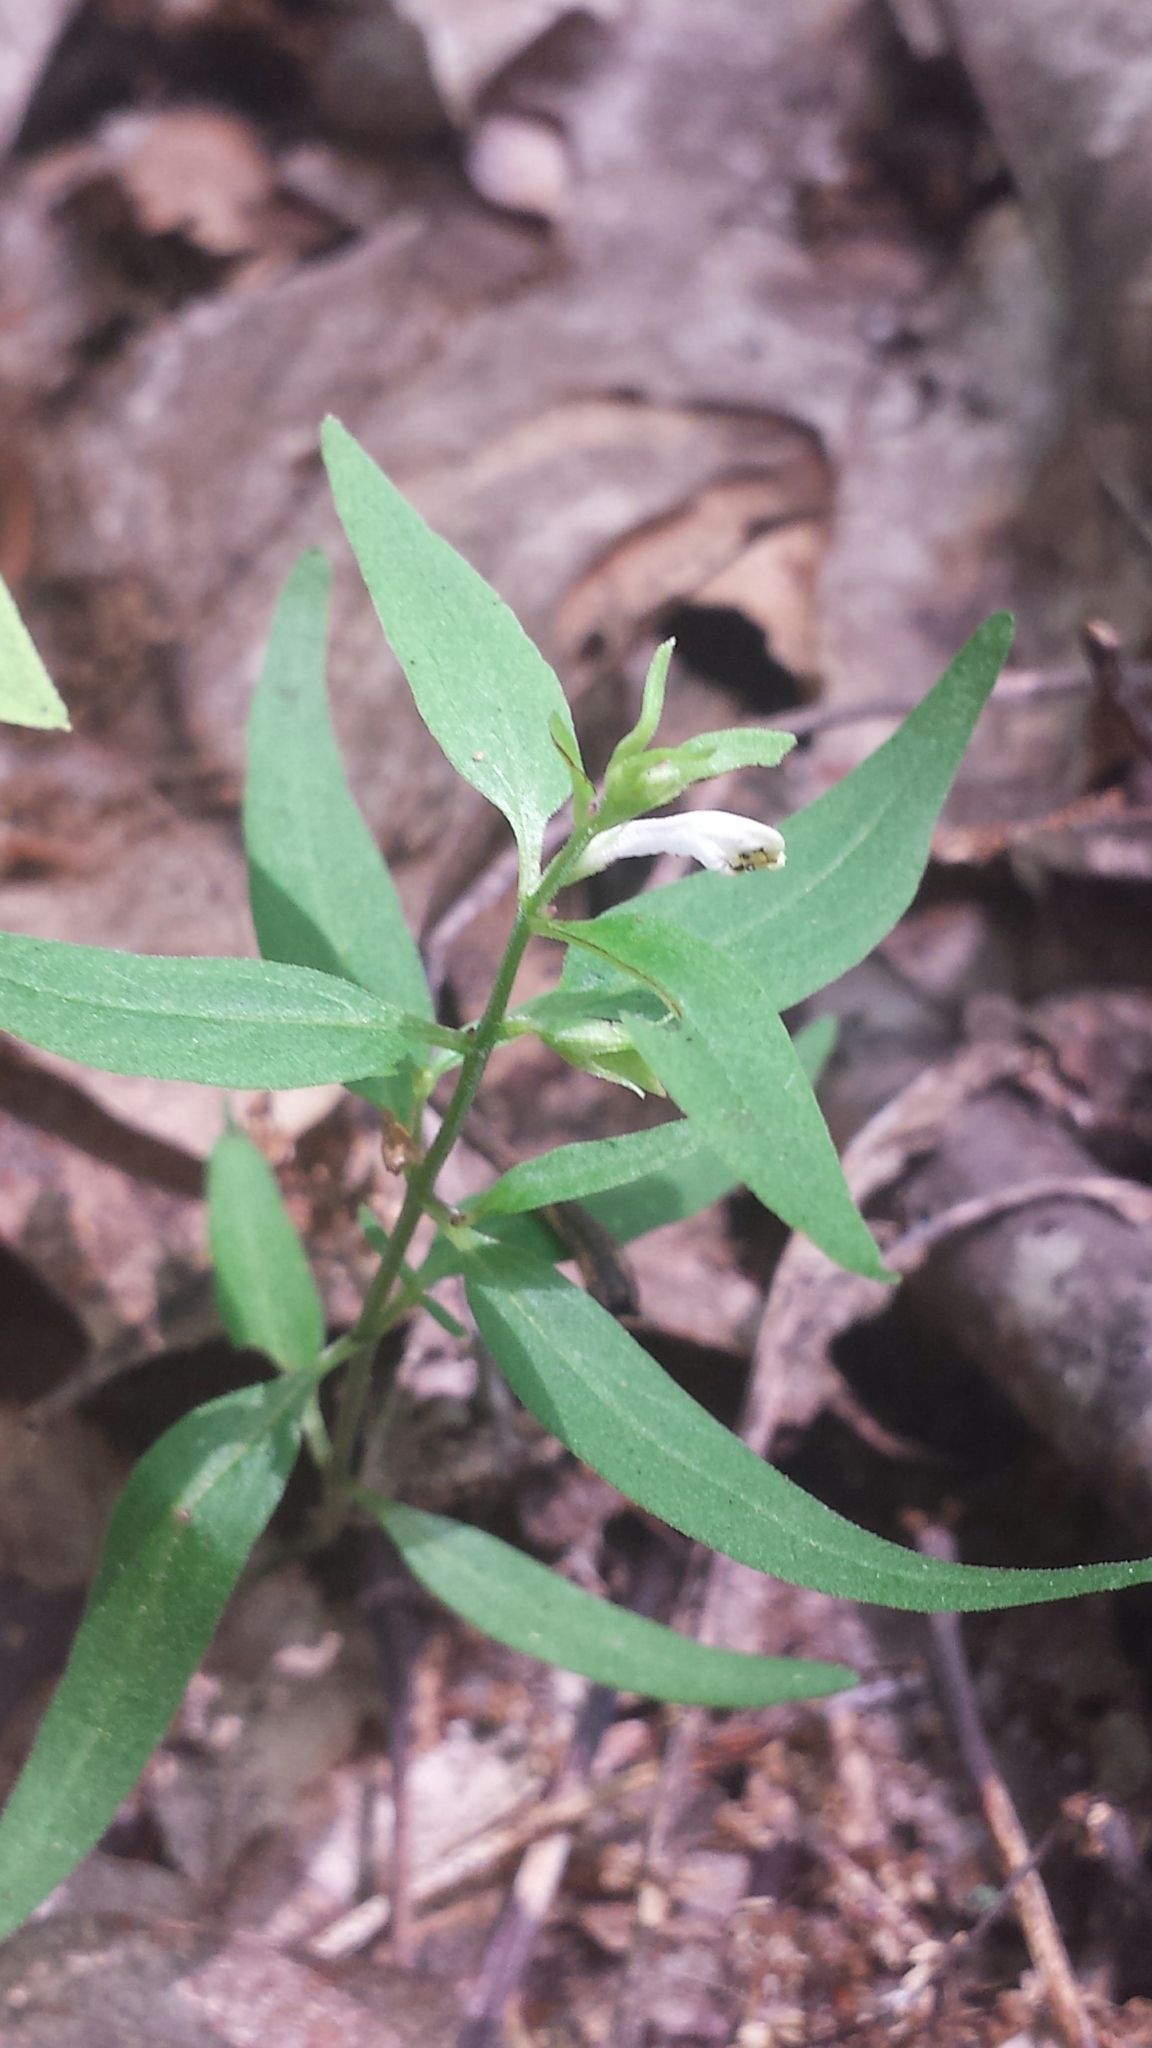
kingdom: Plantae
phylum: Tracheophyta
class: Magnoliopsida
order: Lamiales
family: Orobanchaceae
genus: Melampyrum
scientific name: Melampyrum lineare
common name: American cow-wheat
